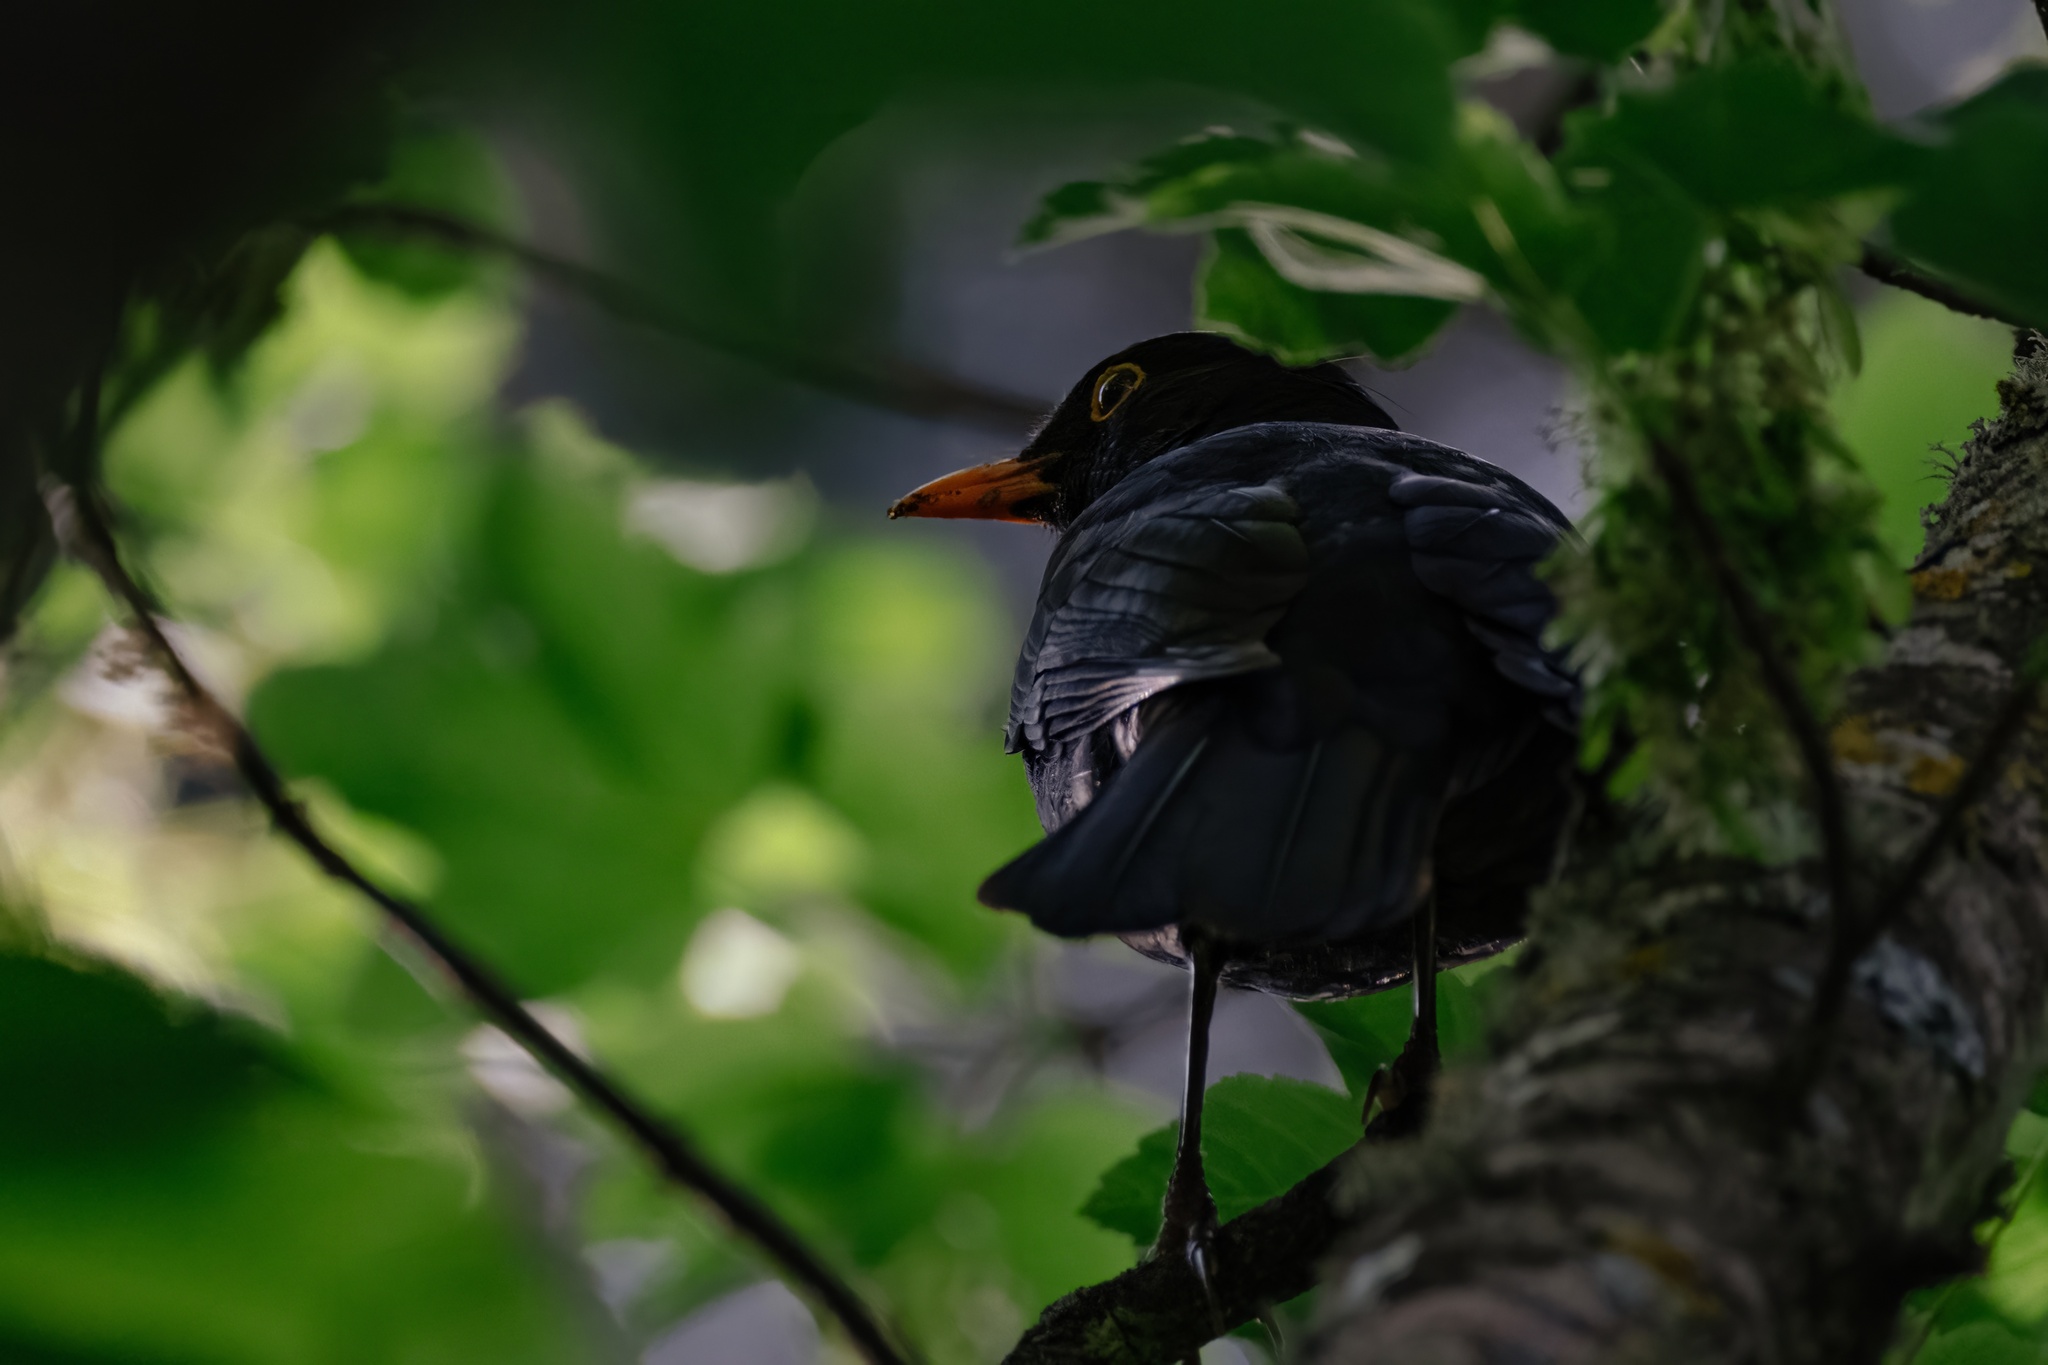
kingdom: Animalia
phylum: Chordata
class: Aves
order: Passeriformes
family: Turdidae
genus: Turdus
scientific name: Turdus merula
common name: Common blackbird
